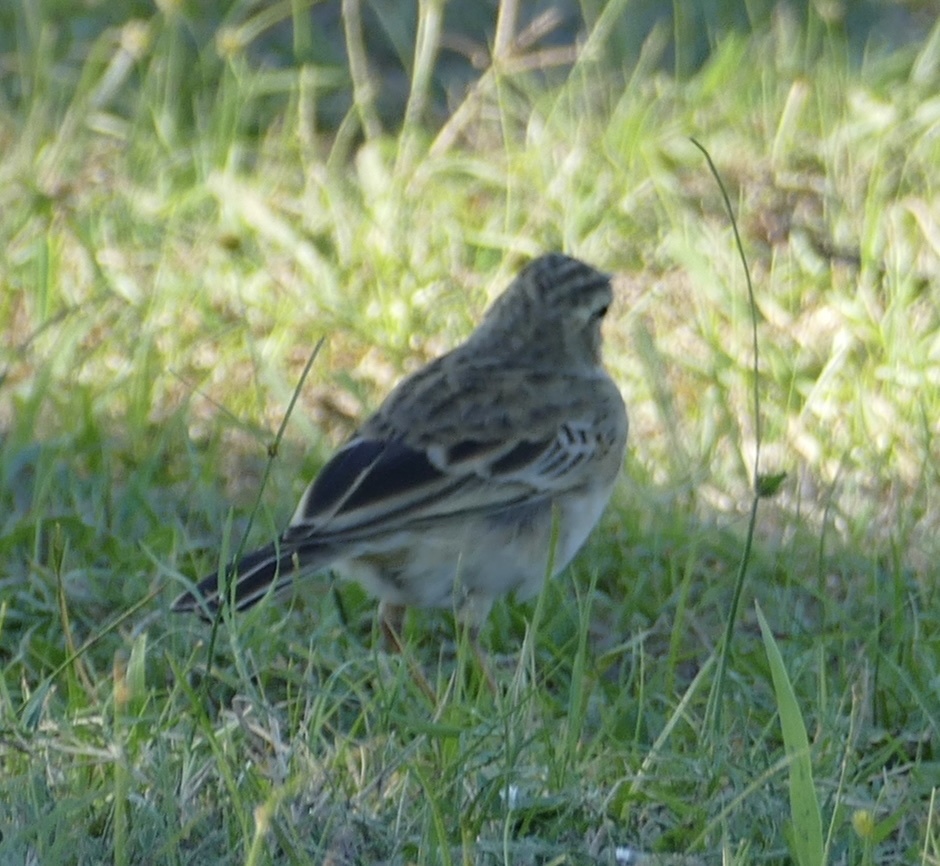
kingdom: Animalia
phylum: Chordata
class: Aves
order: Passeriformes
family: Motacillidae
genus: Anthus
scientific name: Anthus cinnamomeus
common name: African pipit
